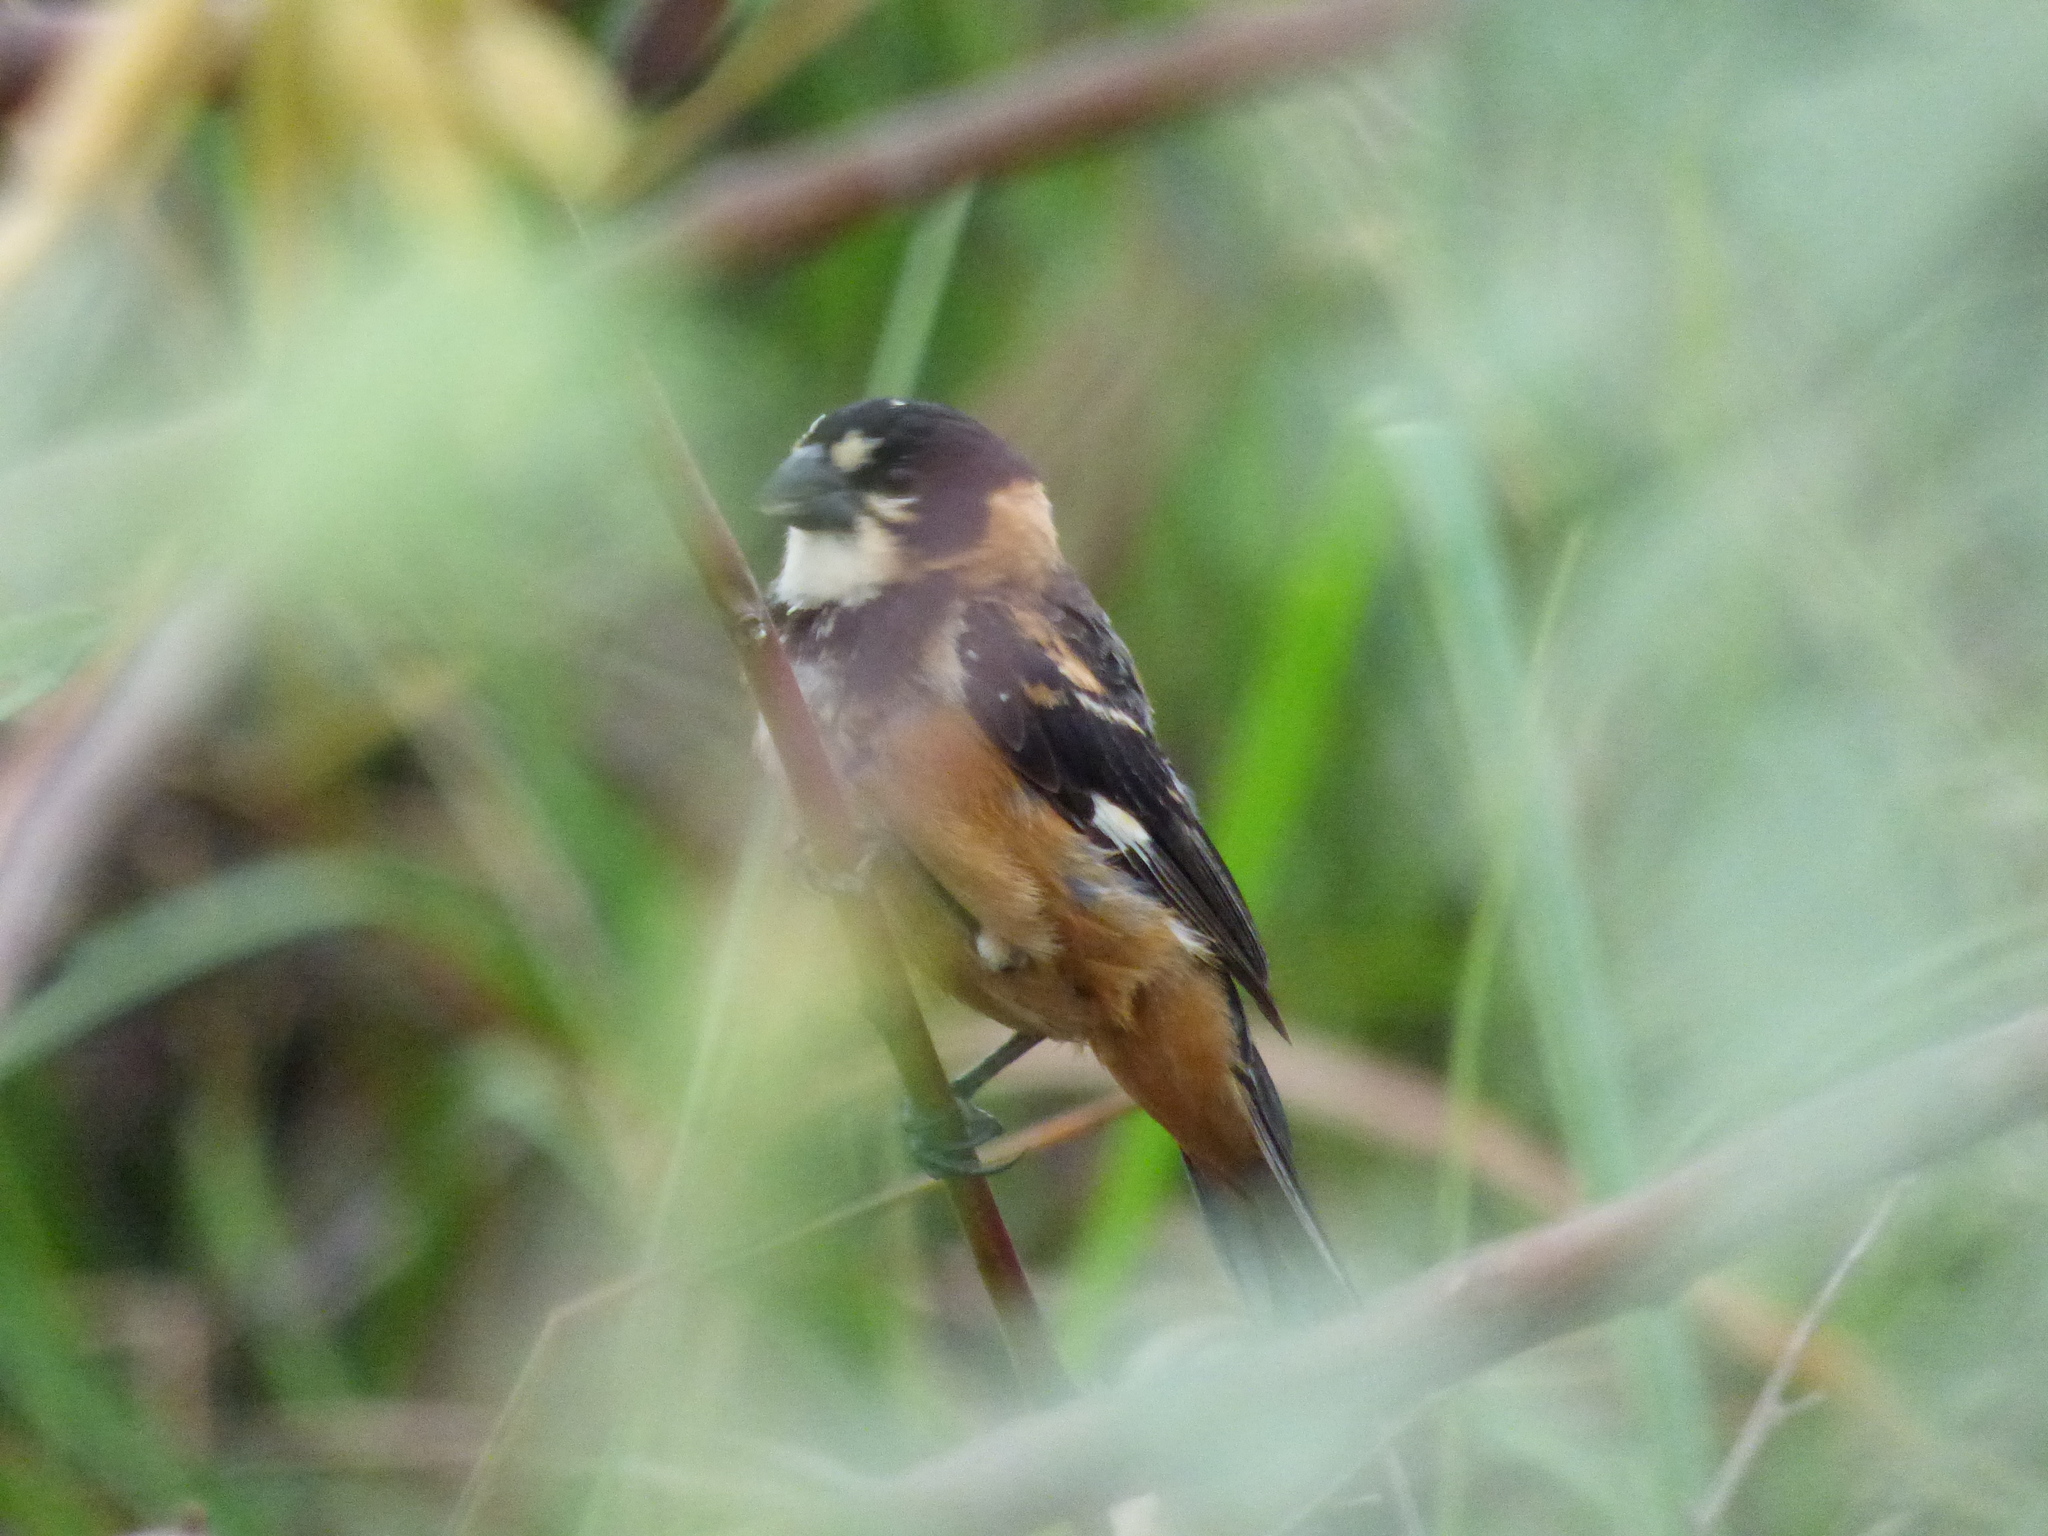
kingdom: Animalia
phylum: Chordata
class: Aves
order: Passeriformes
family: Thraupidae
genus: Sporophila
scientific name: Sporophila collaris
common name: Rusty-collared seedeater
